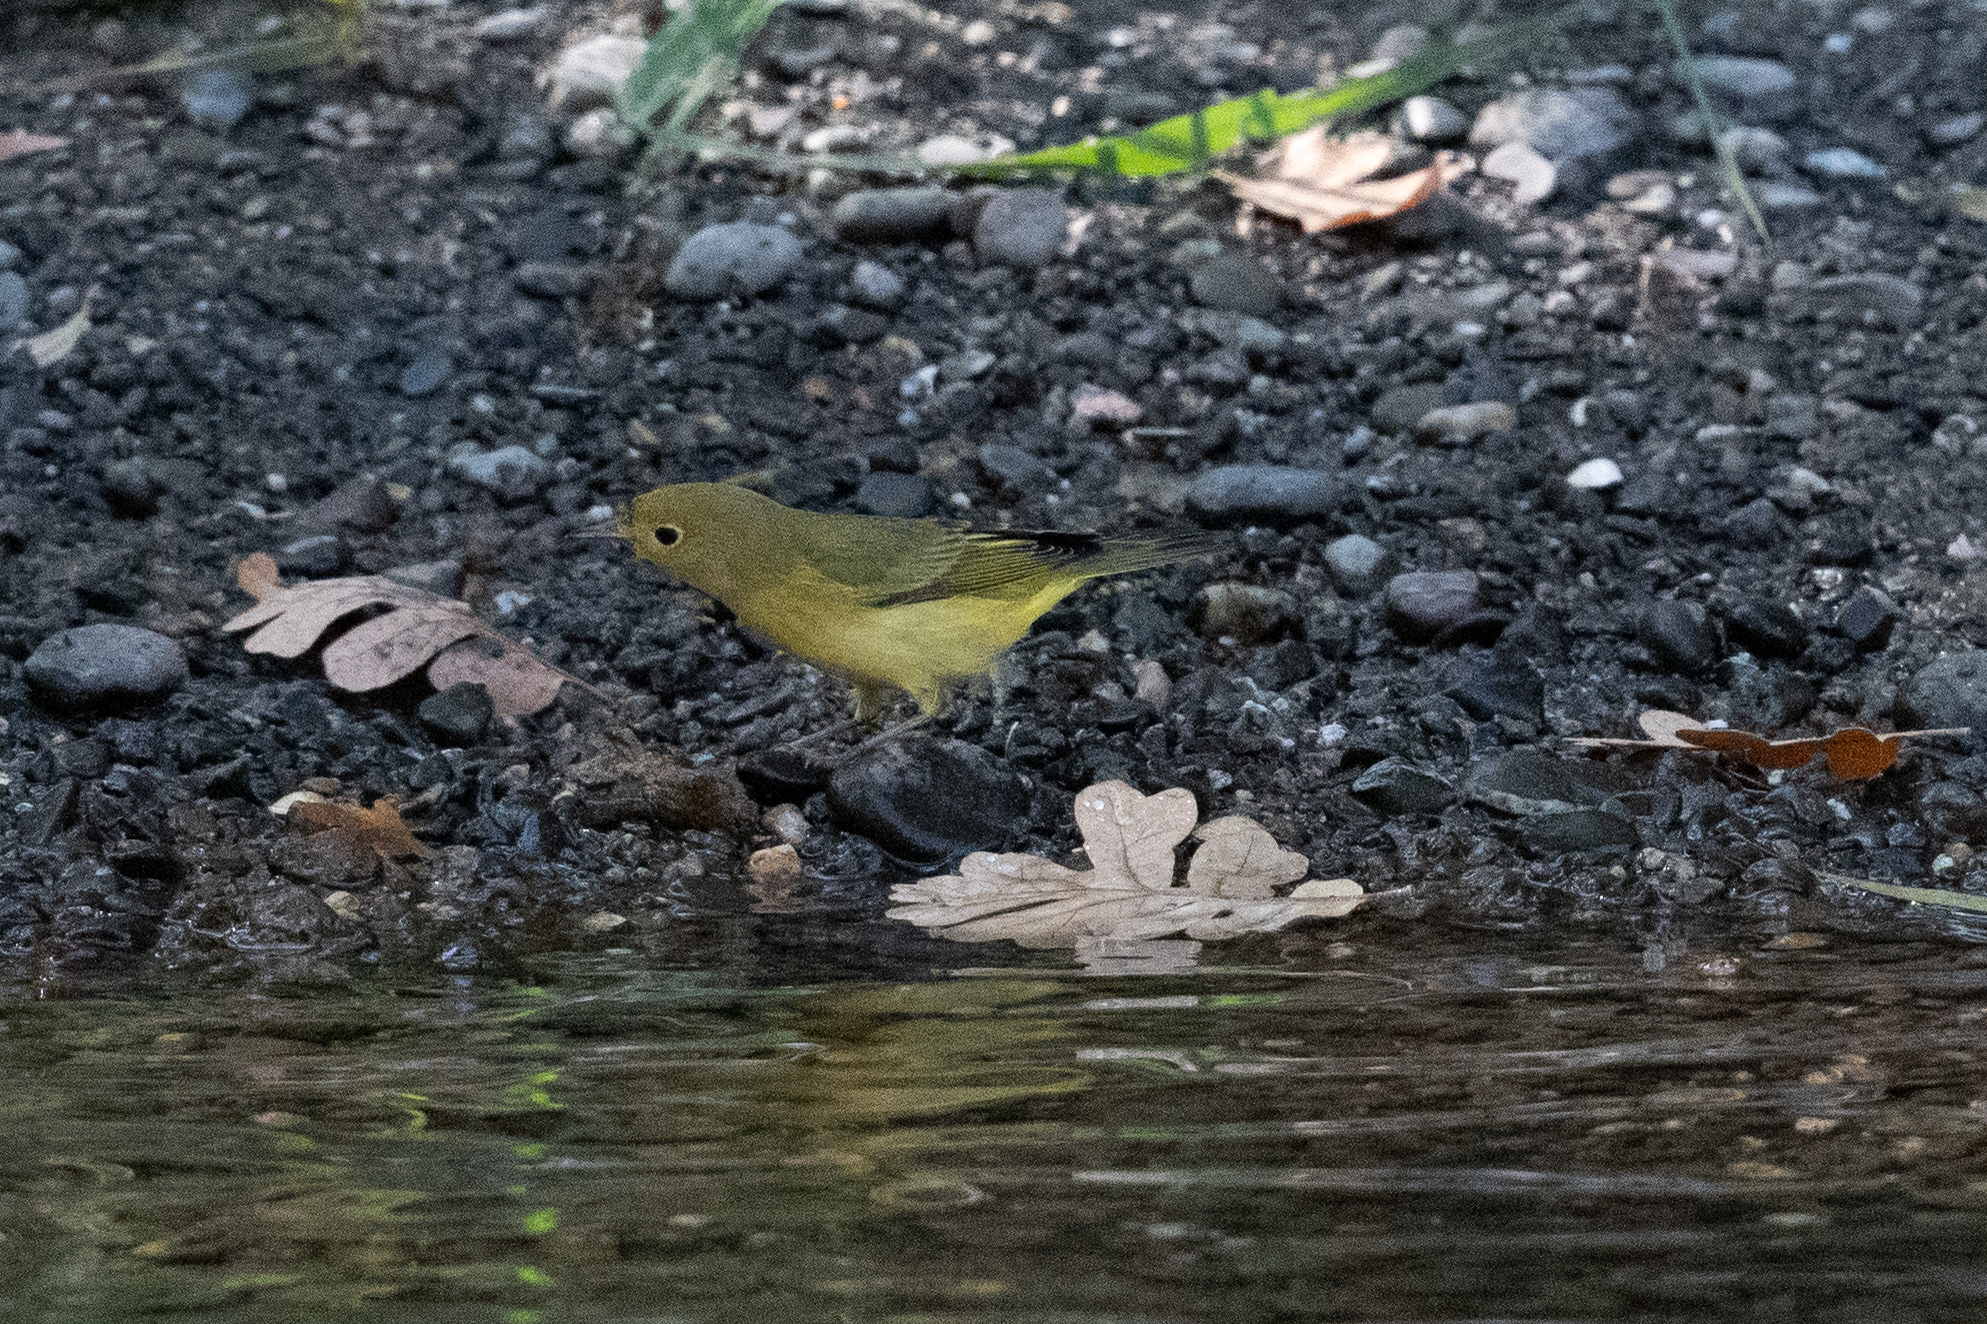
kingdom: Animalia
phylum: Chordata
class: Aves
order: Passeriformes
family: Parulidae
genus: Setophaga
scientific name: Setophaga petechia
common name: Yellow warbler
